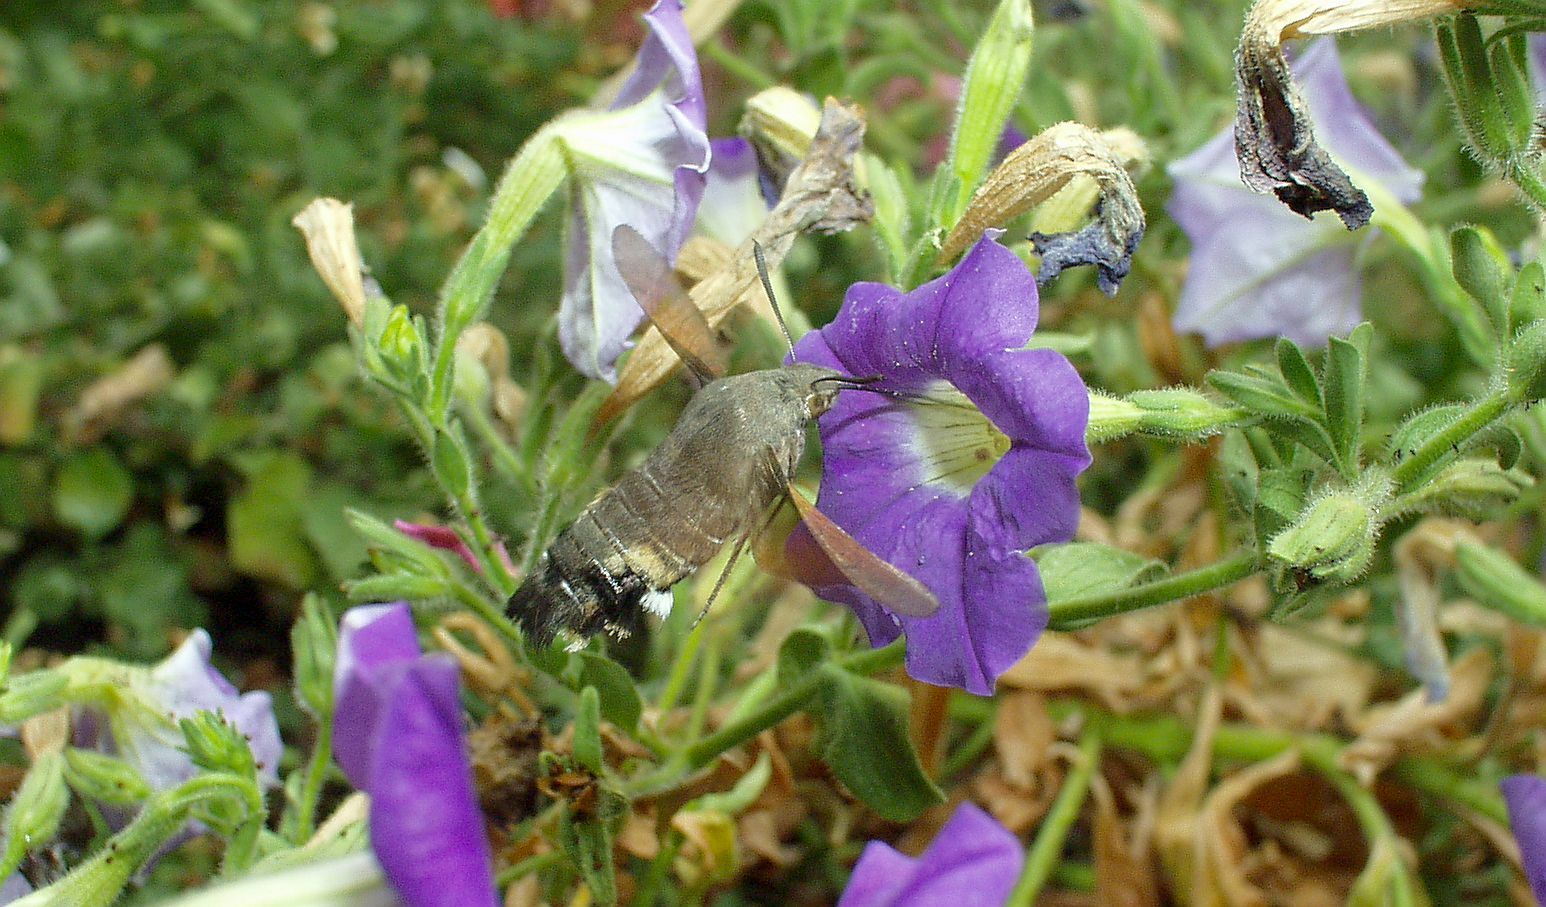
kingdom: Animalia
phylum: Arthropoda
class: Insecta
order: Lepidoptera
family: Sphingidae
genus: Macroglossum
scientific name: Macroglossum stellatarum
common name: Humming-bird hawk-moth
